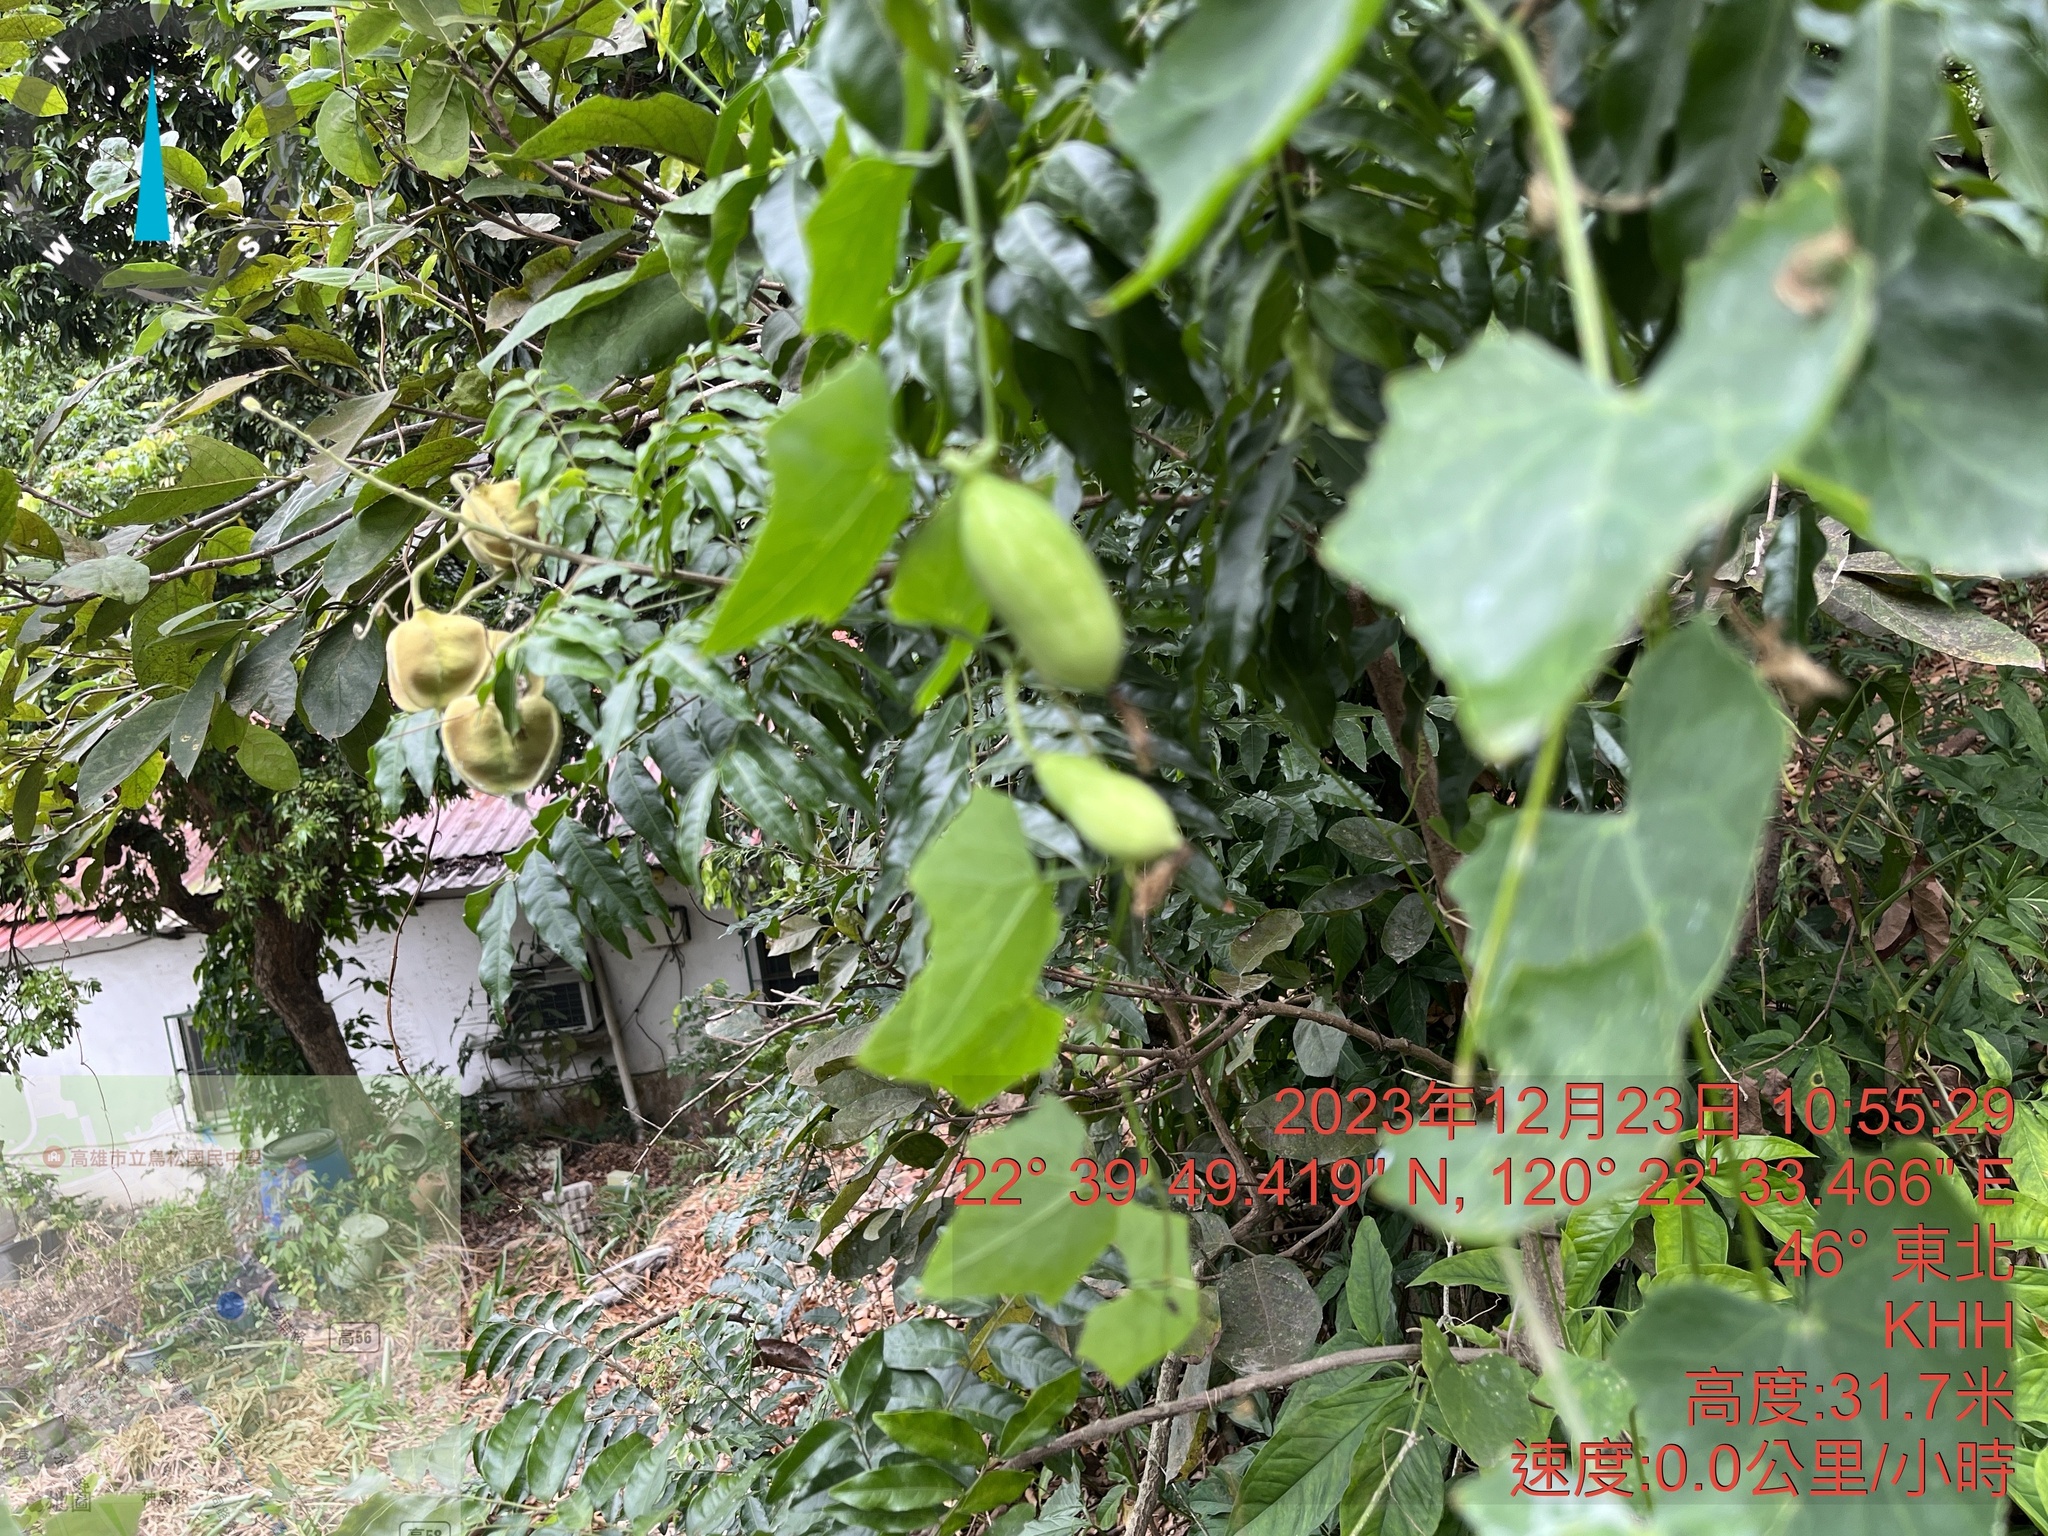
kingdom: Plantae
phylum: Tracheophyta
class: Magnoliopsida
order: Cucurbitales
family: Cucurbitaceae
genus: Coccinia
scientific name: Coccinia grandis
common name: Ivy gourd
